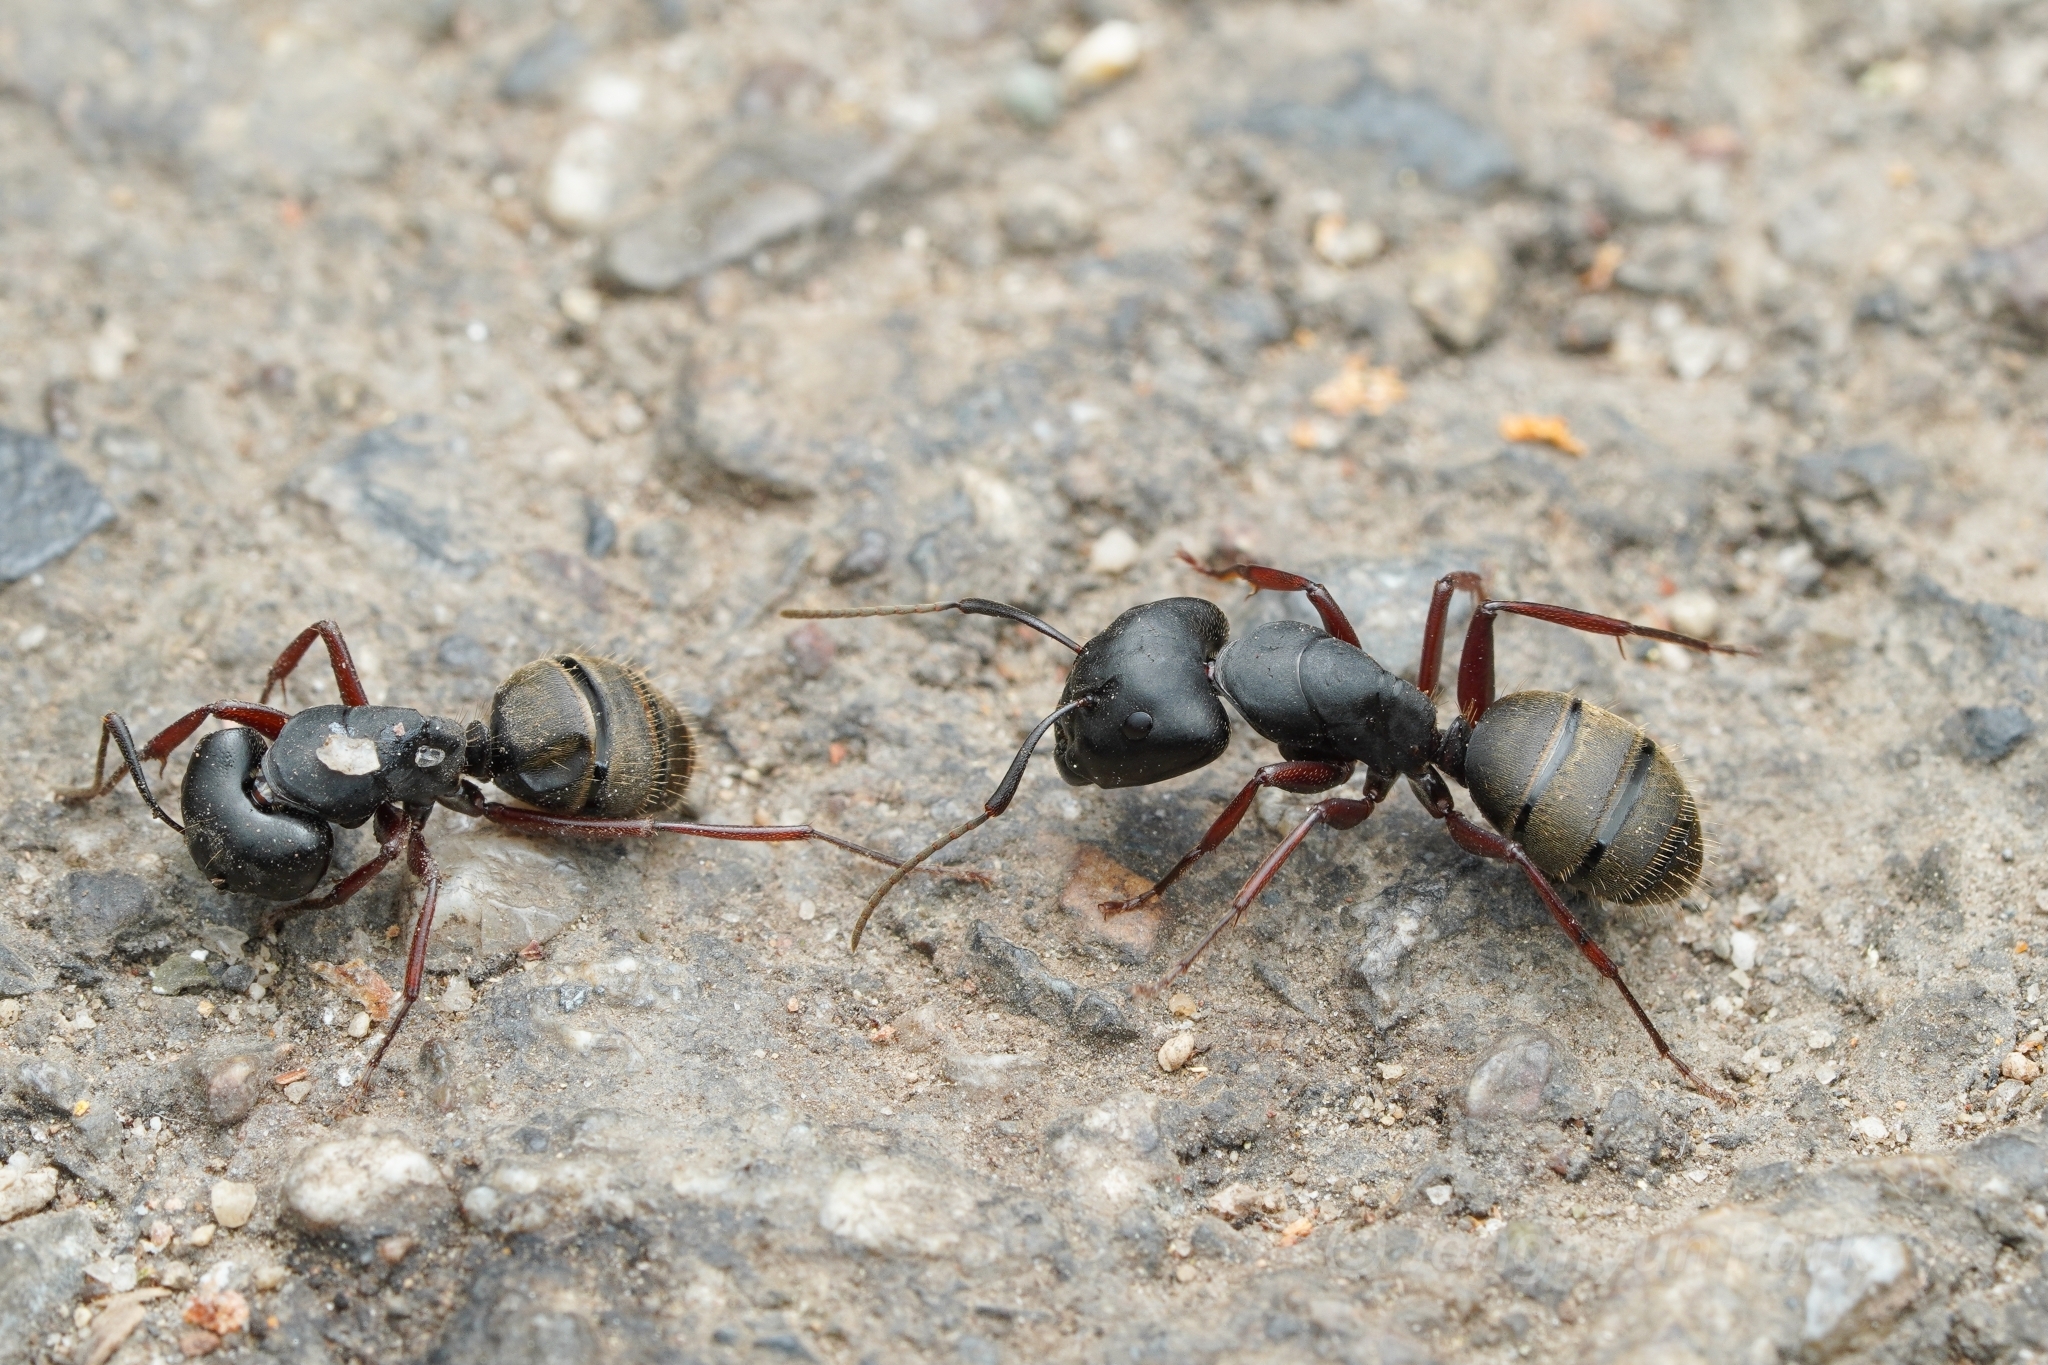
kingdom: Animalia
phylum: Arthropoda
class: Insecta
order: Hymenoptera
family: Formicidae
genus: Camponotus
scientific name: Camponotus modoc
